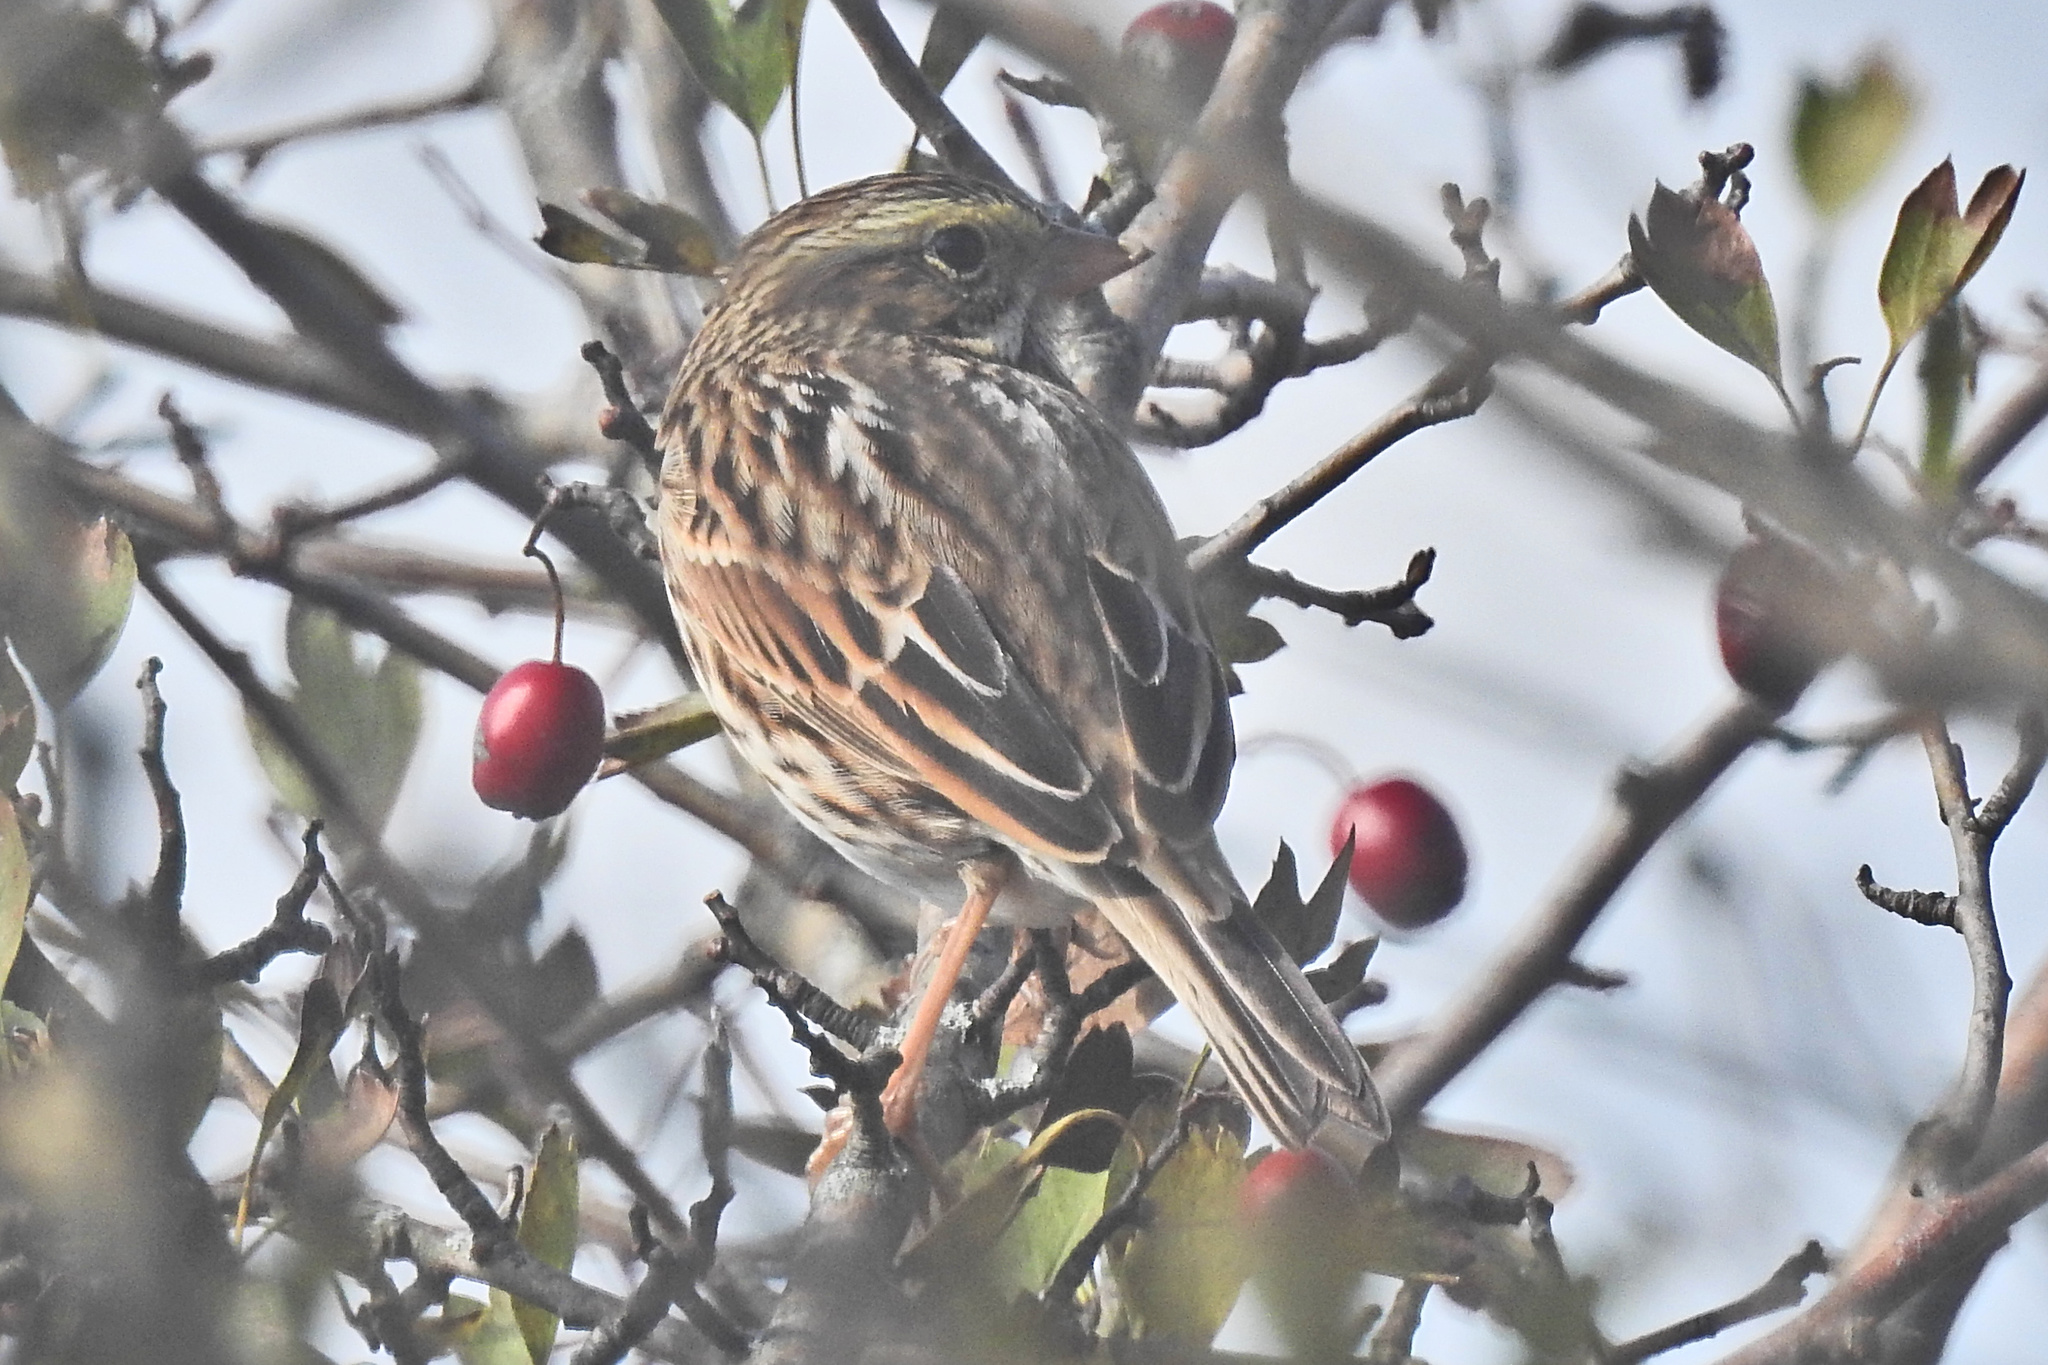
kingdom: Animalia
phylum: Chordata
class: Aves
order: Passeriformes
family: Passerellidae
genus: Passerculus
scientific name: Passerculus sandwichensis
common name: Savannah sparrow
